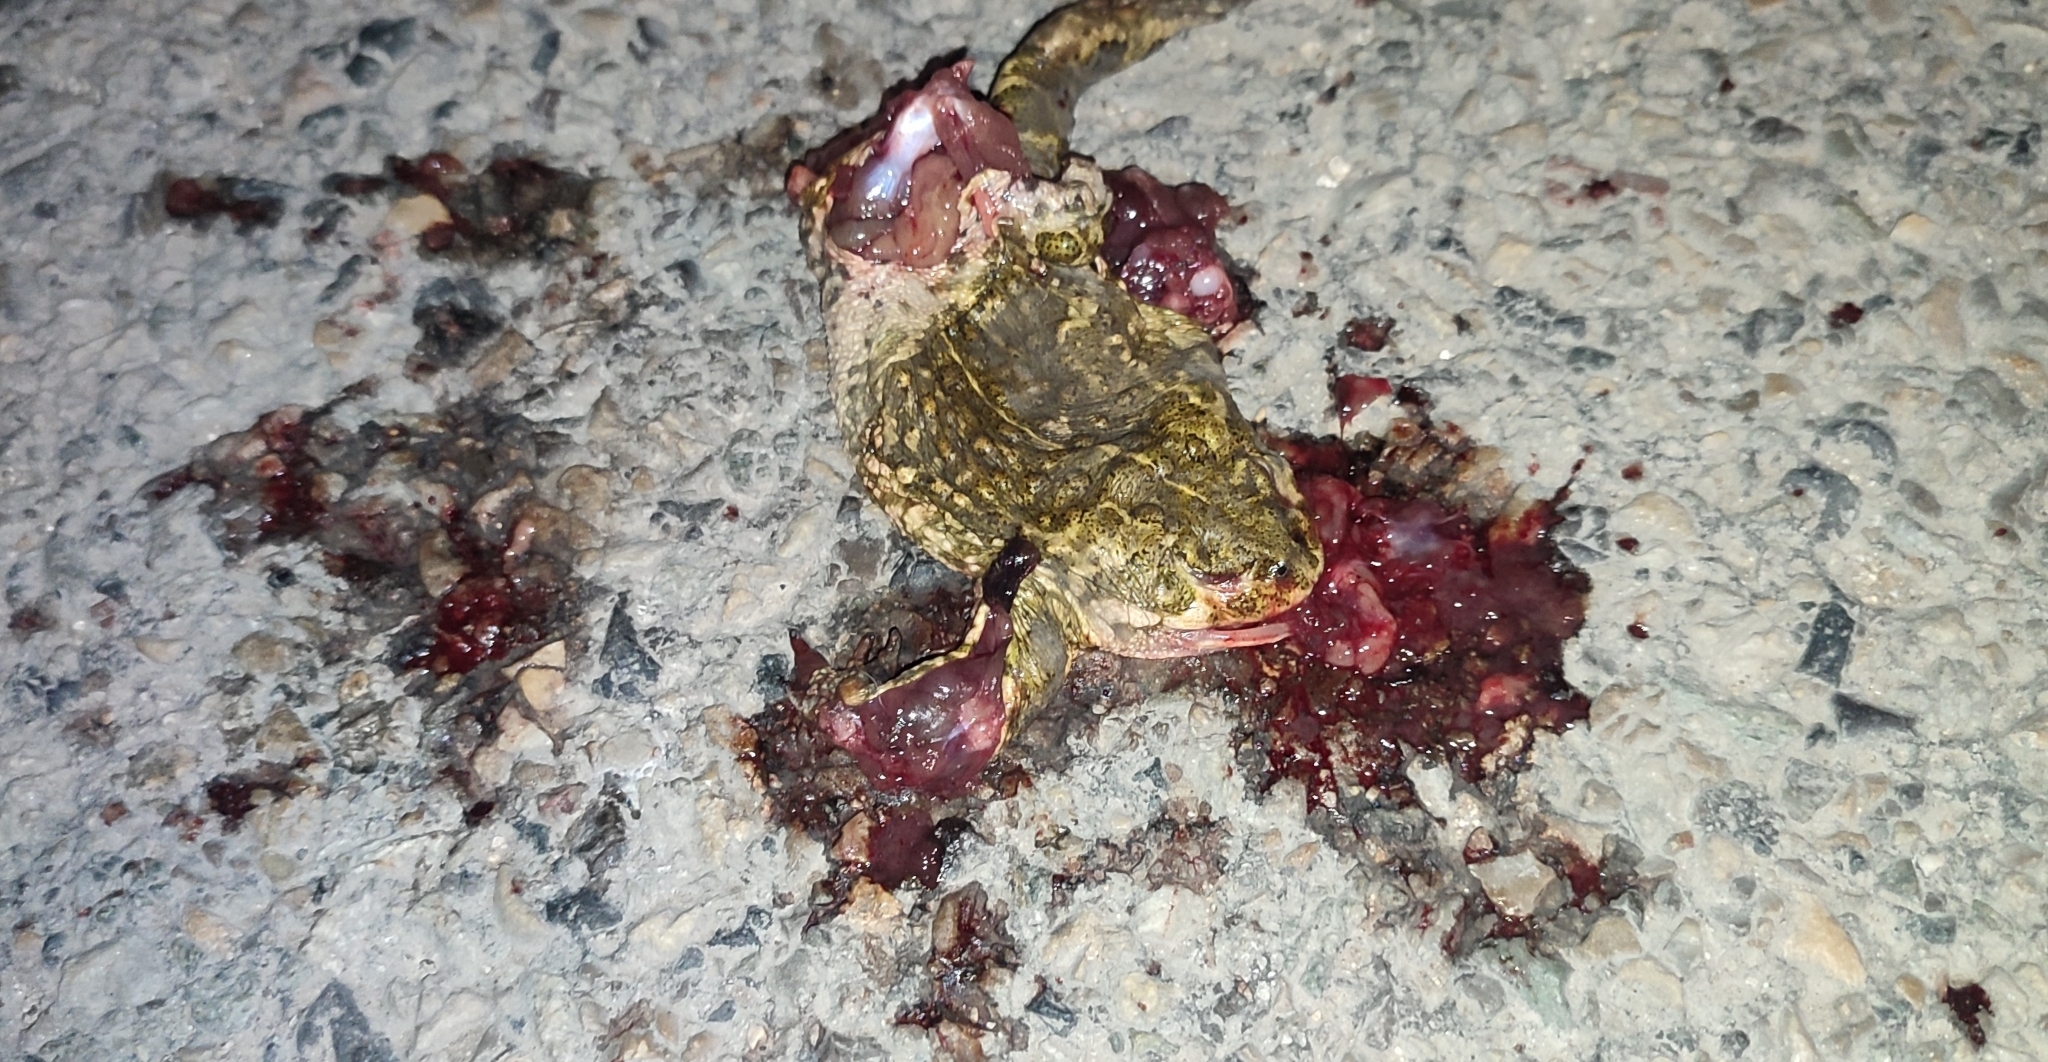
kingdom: Animalia
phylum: Chordata
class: Amphibia
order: Anura
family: Bufonidae
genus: Epidalea
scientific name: Epidalea calamita
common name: Natterjack toad
